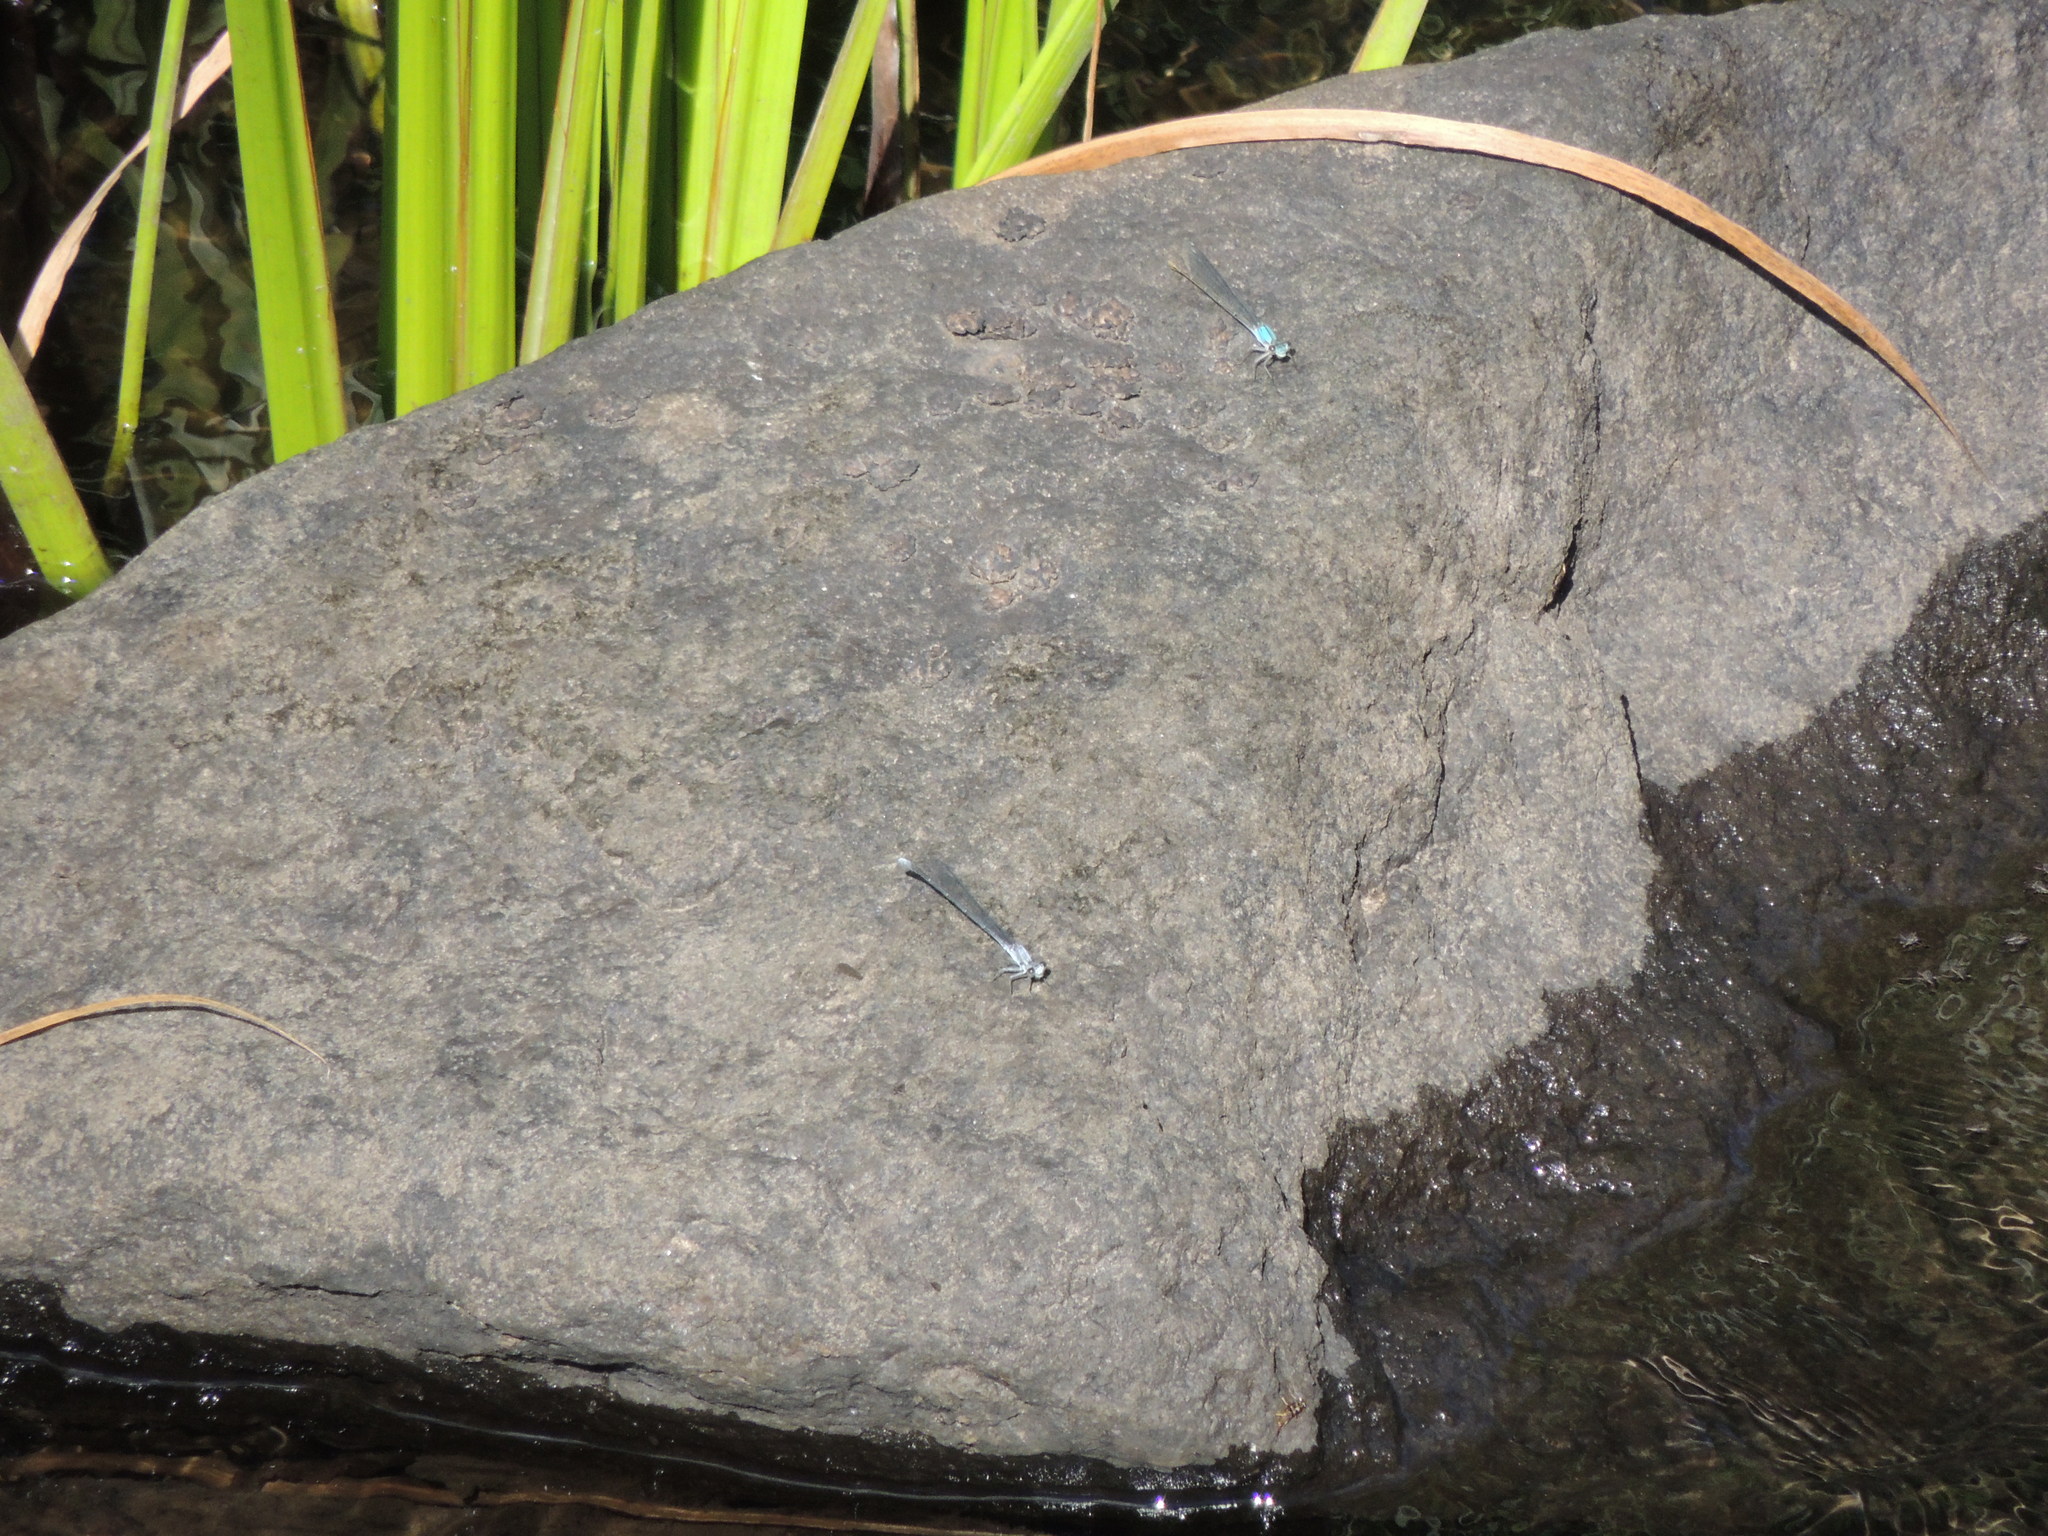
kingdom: Animalia
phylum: Arthropoda
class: Insecta
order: Odonata
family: Coenagrionidae
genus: Argia
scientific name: Argia moesta
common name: Powdered dancer
